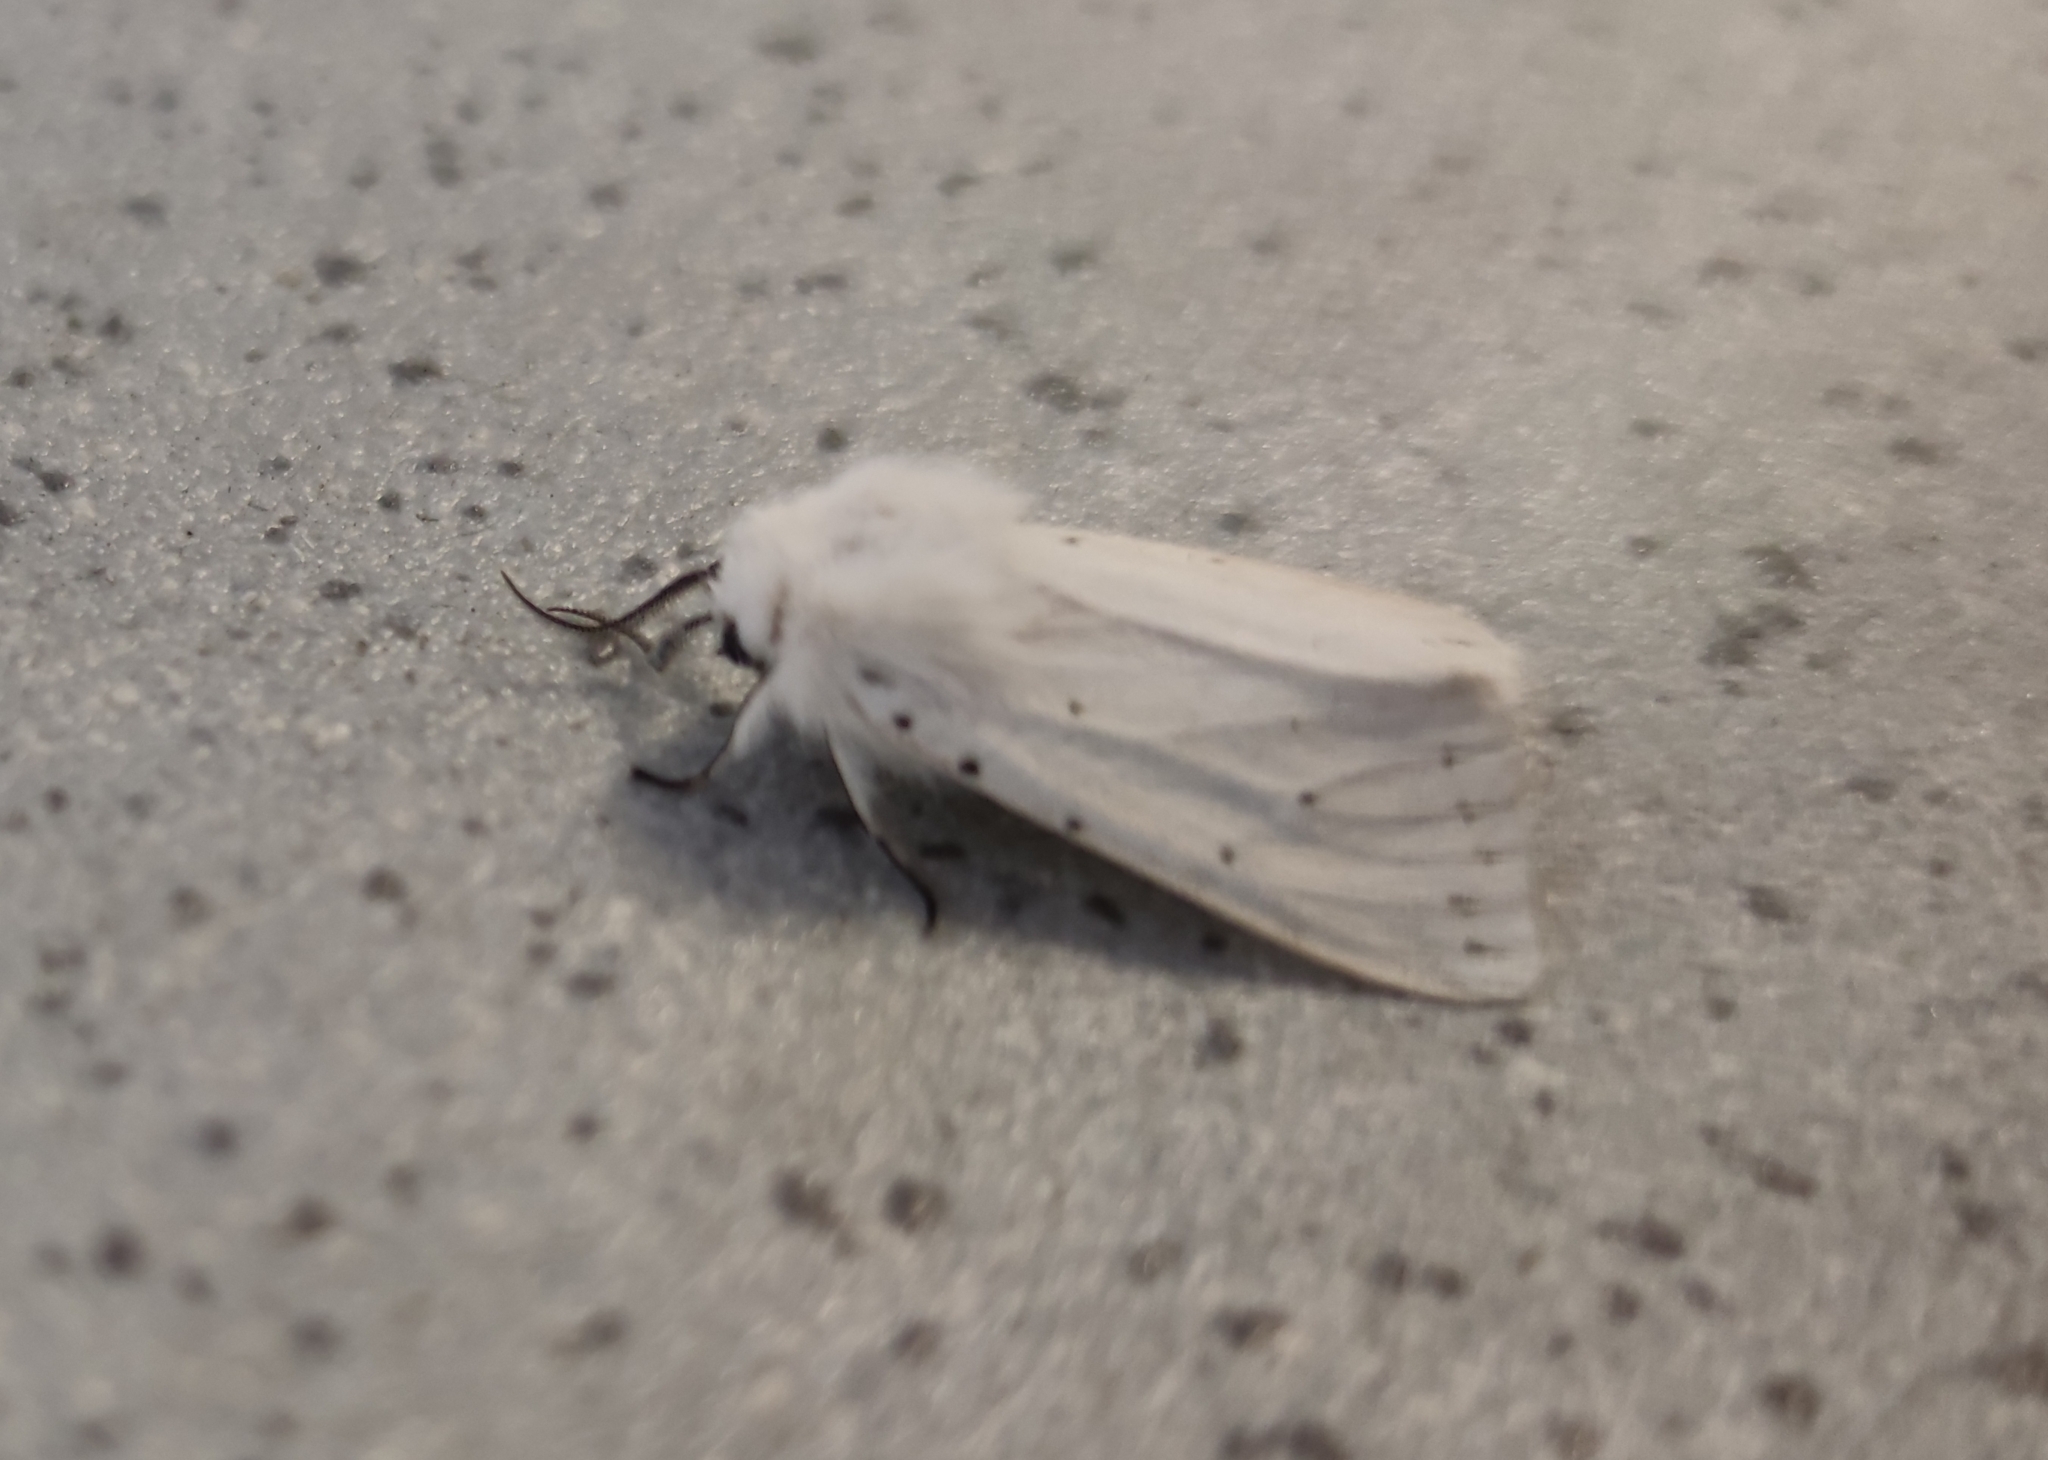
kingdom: Animalia
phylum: Arthropoda
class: Insecta
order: Lepidoptera
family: Erebidae
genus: Spilosoma
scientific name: Spilosoma lubricipeda
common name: White ermine
